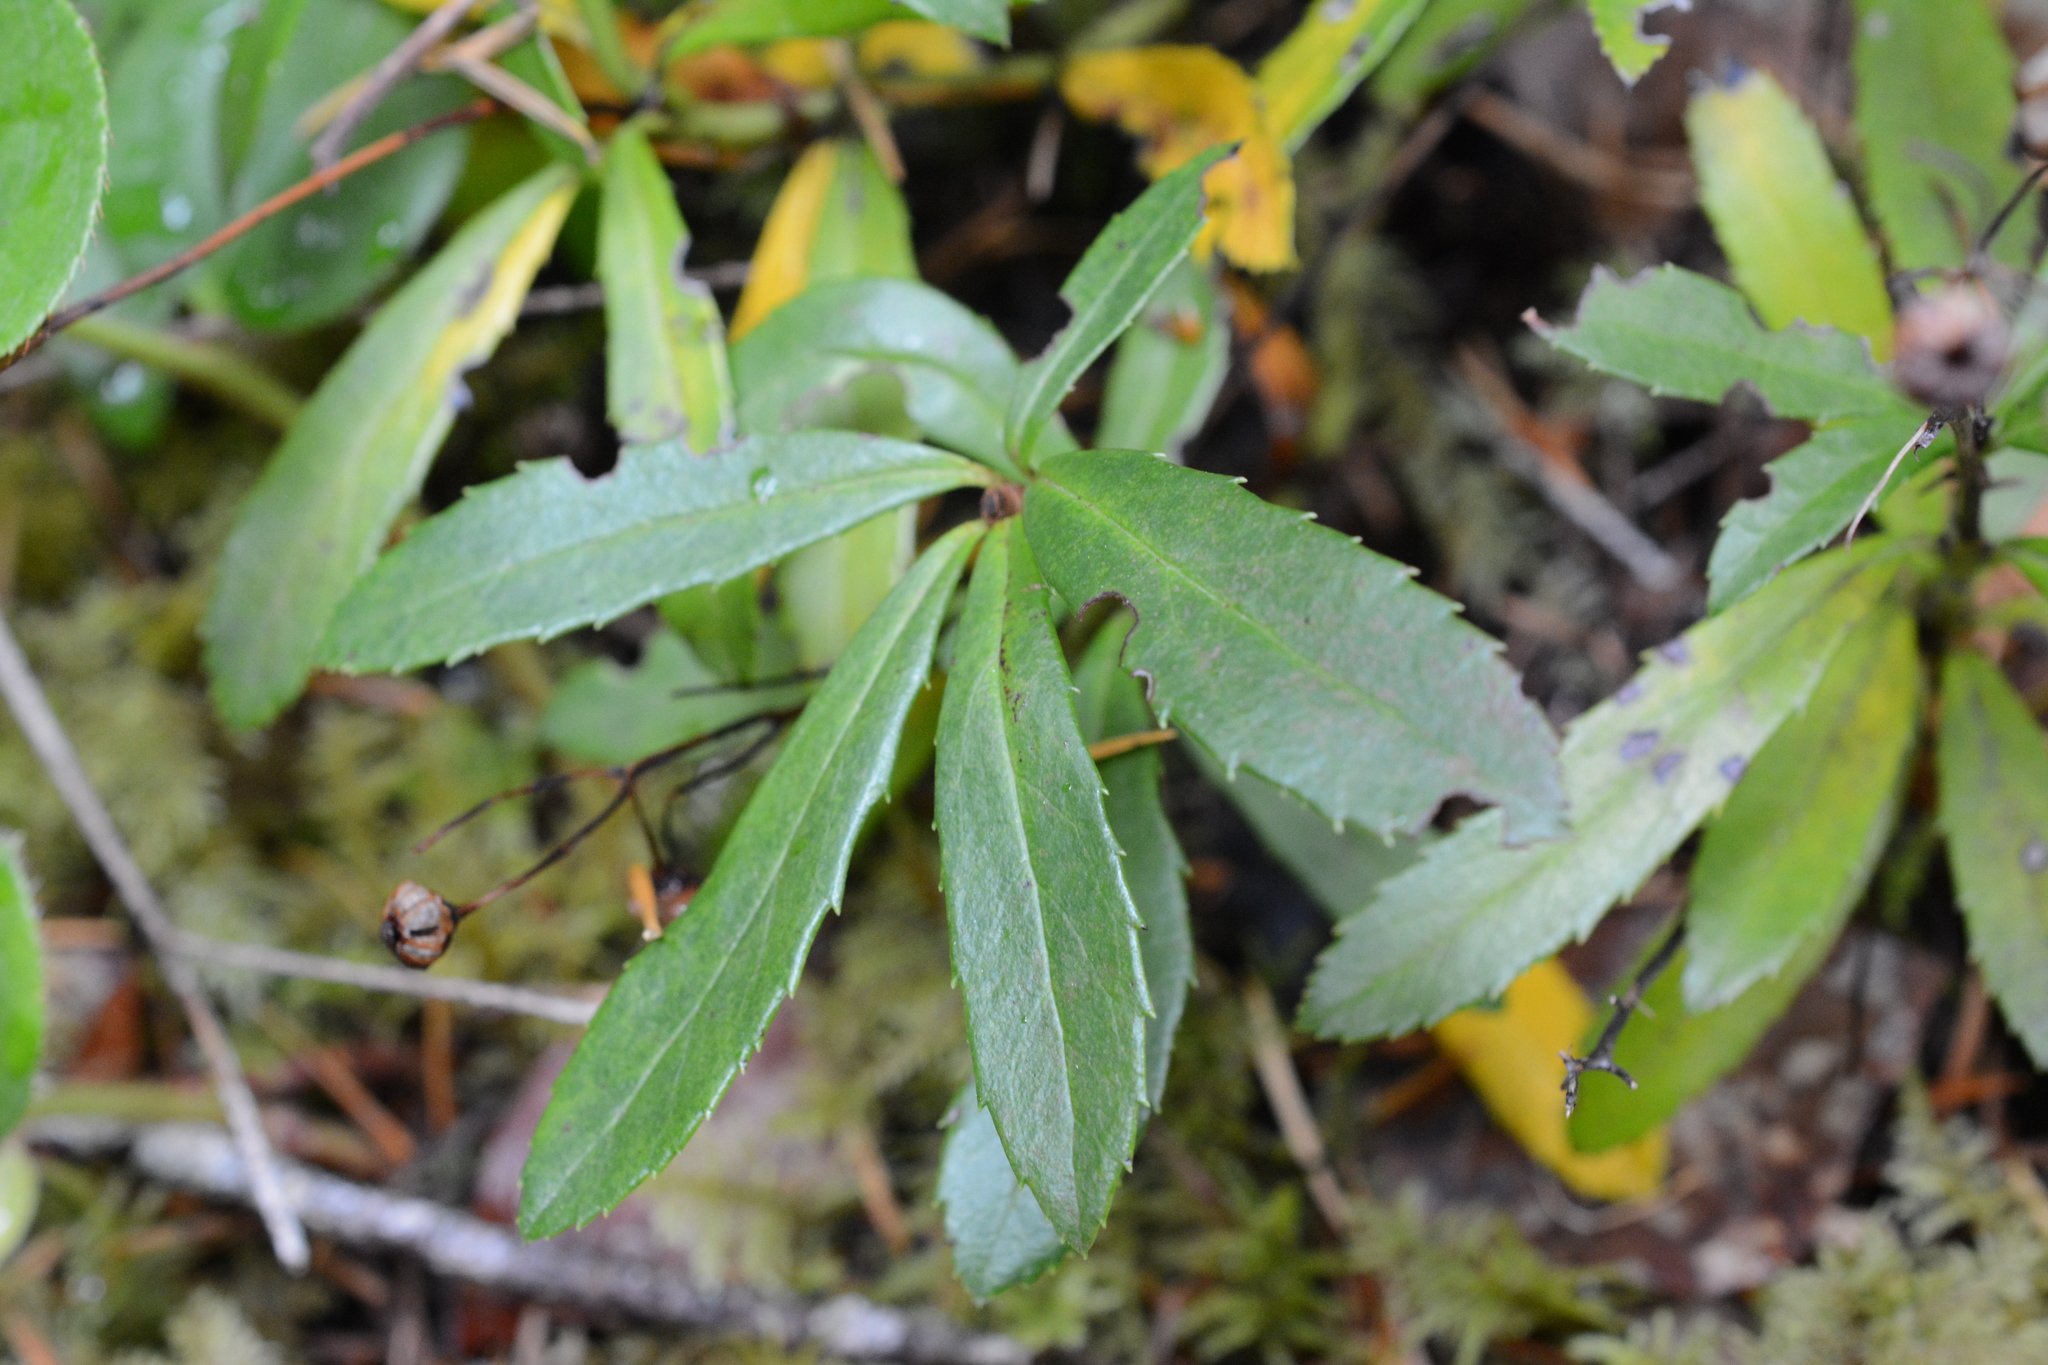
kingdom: Plantae
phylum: Tracheophyta
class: Magnoliopsida
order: Ericales
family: Ericaceae
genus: Chimaphila
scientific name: Chimaphila umbellata
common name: Pipsissewa
